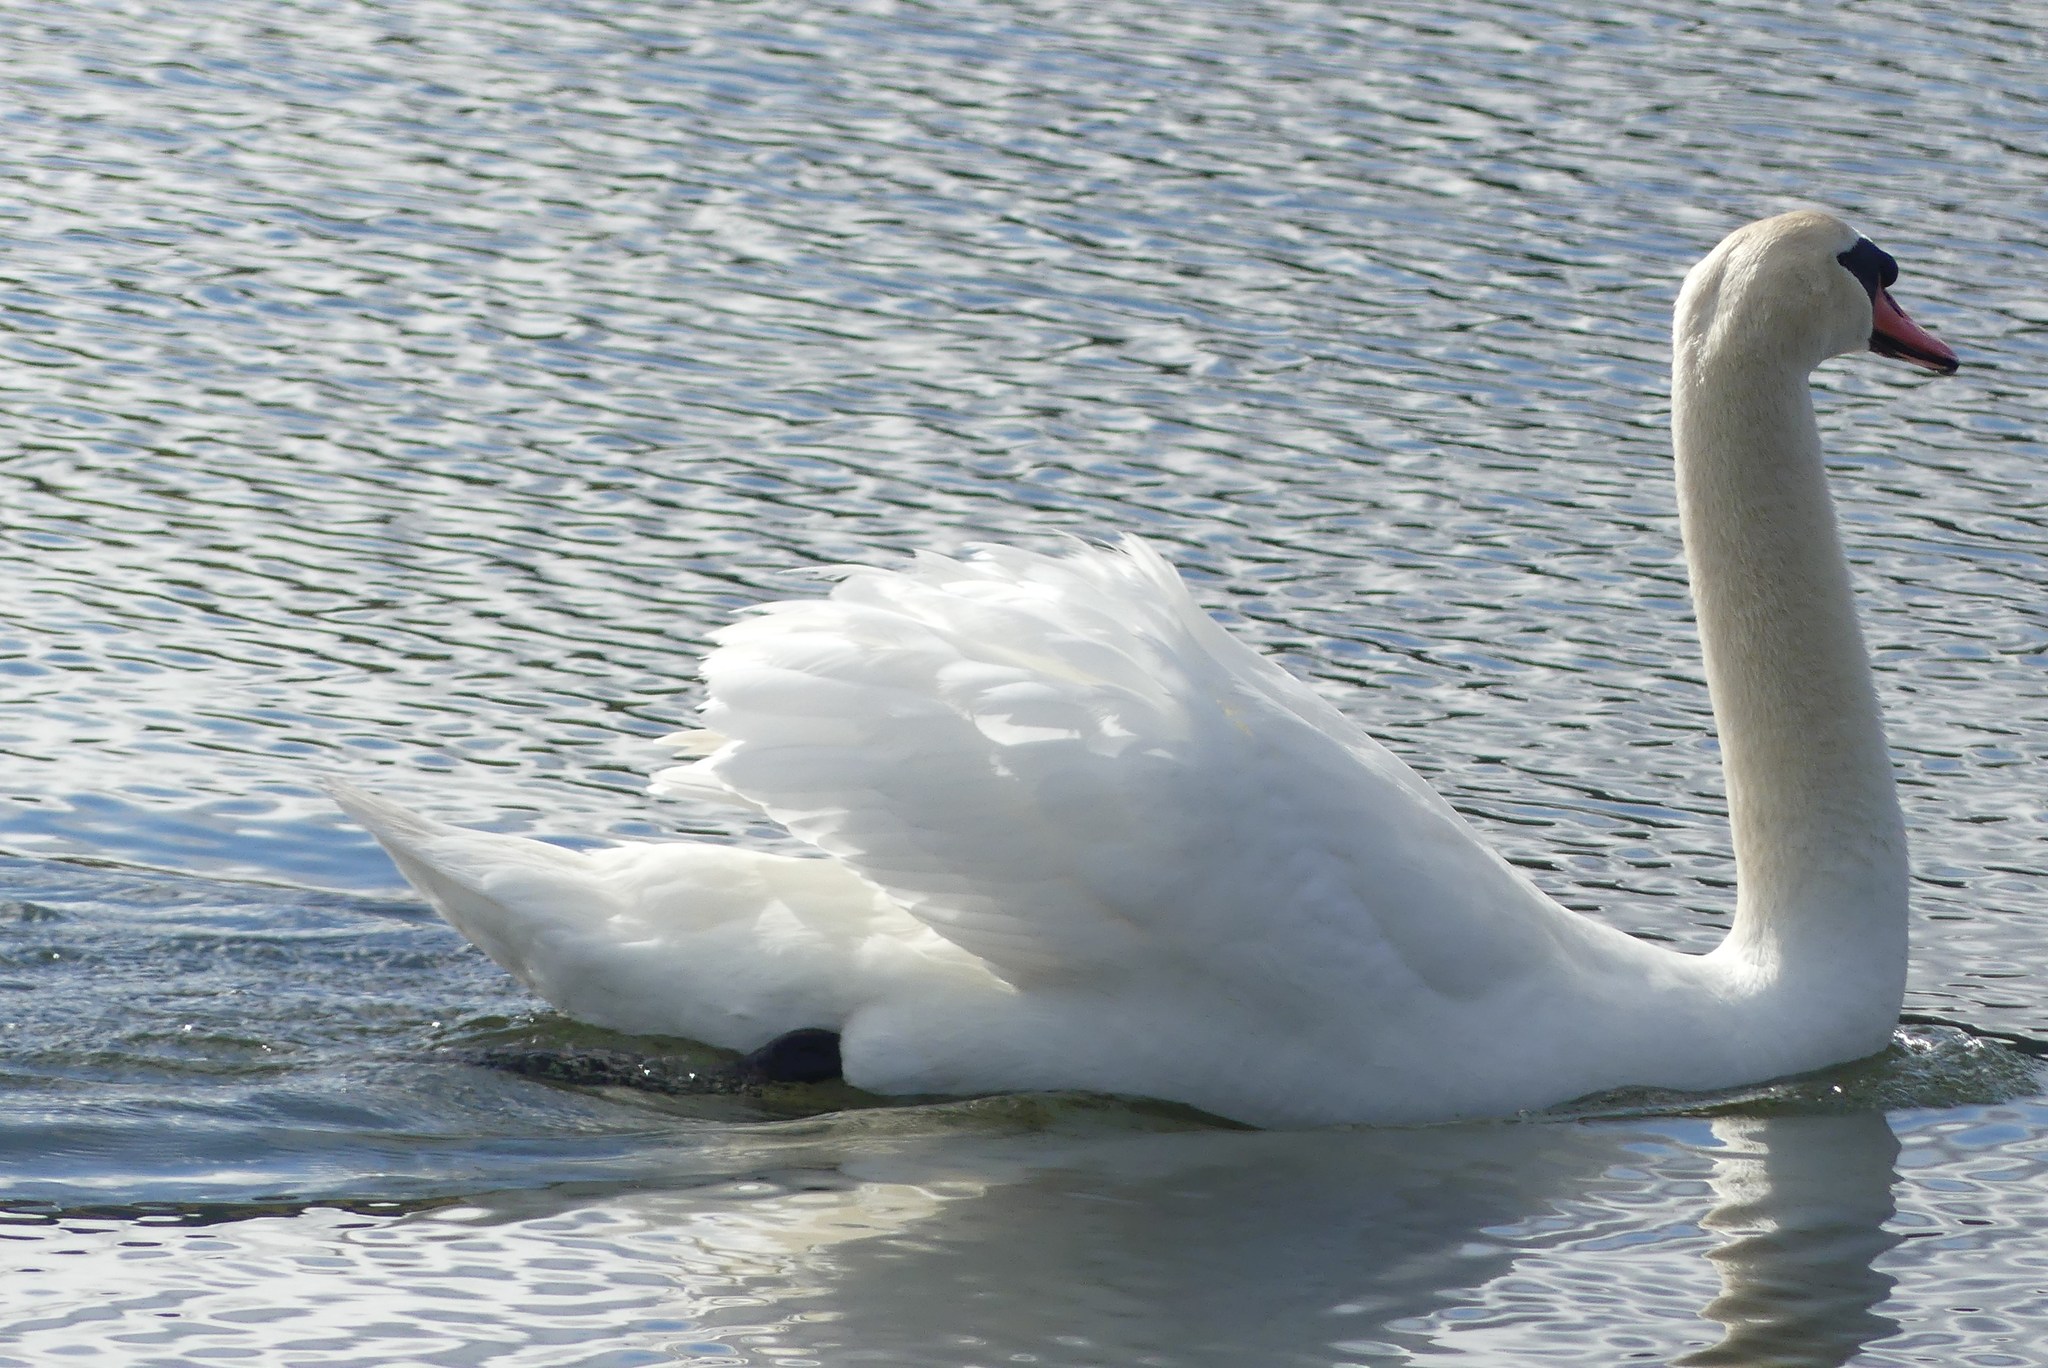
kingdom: Animalia
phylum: Chordata
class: Aves
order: Anseriformes
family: Anatidae
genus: Cygnus
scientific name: Cygnus olor
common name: Mute swan
